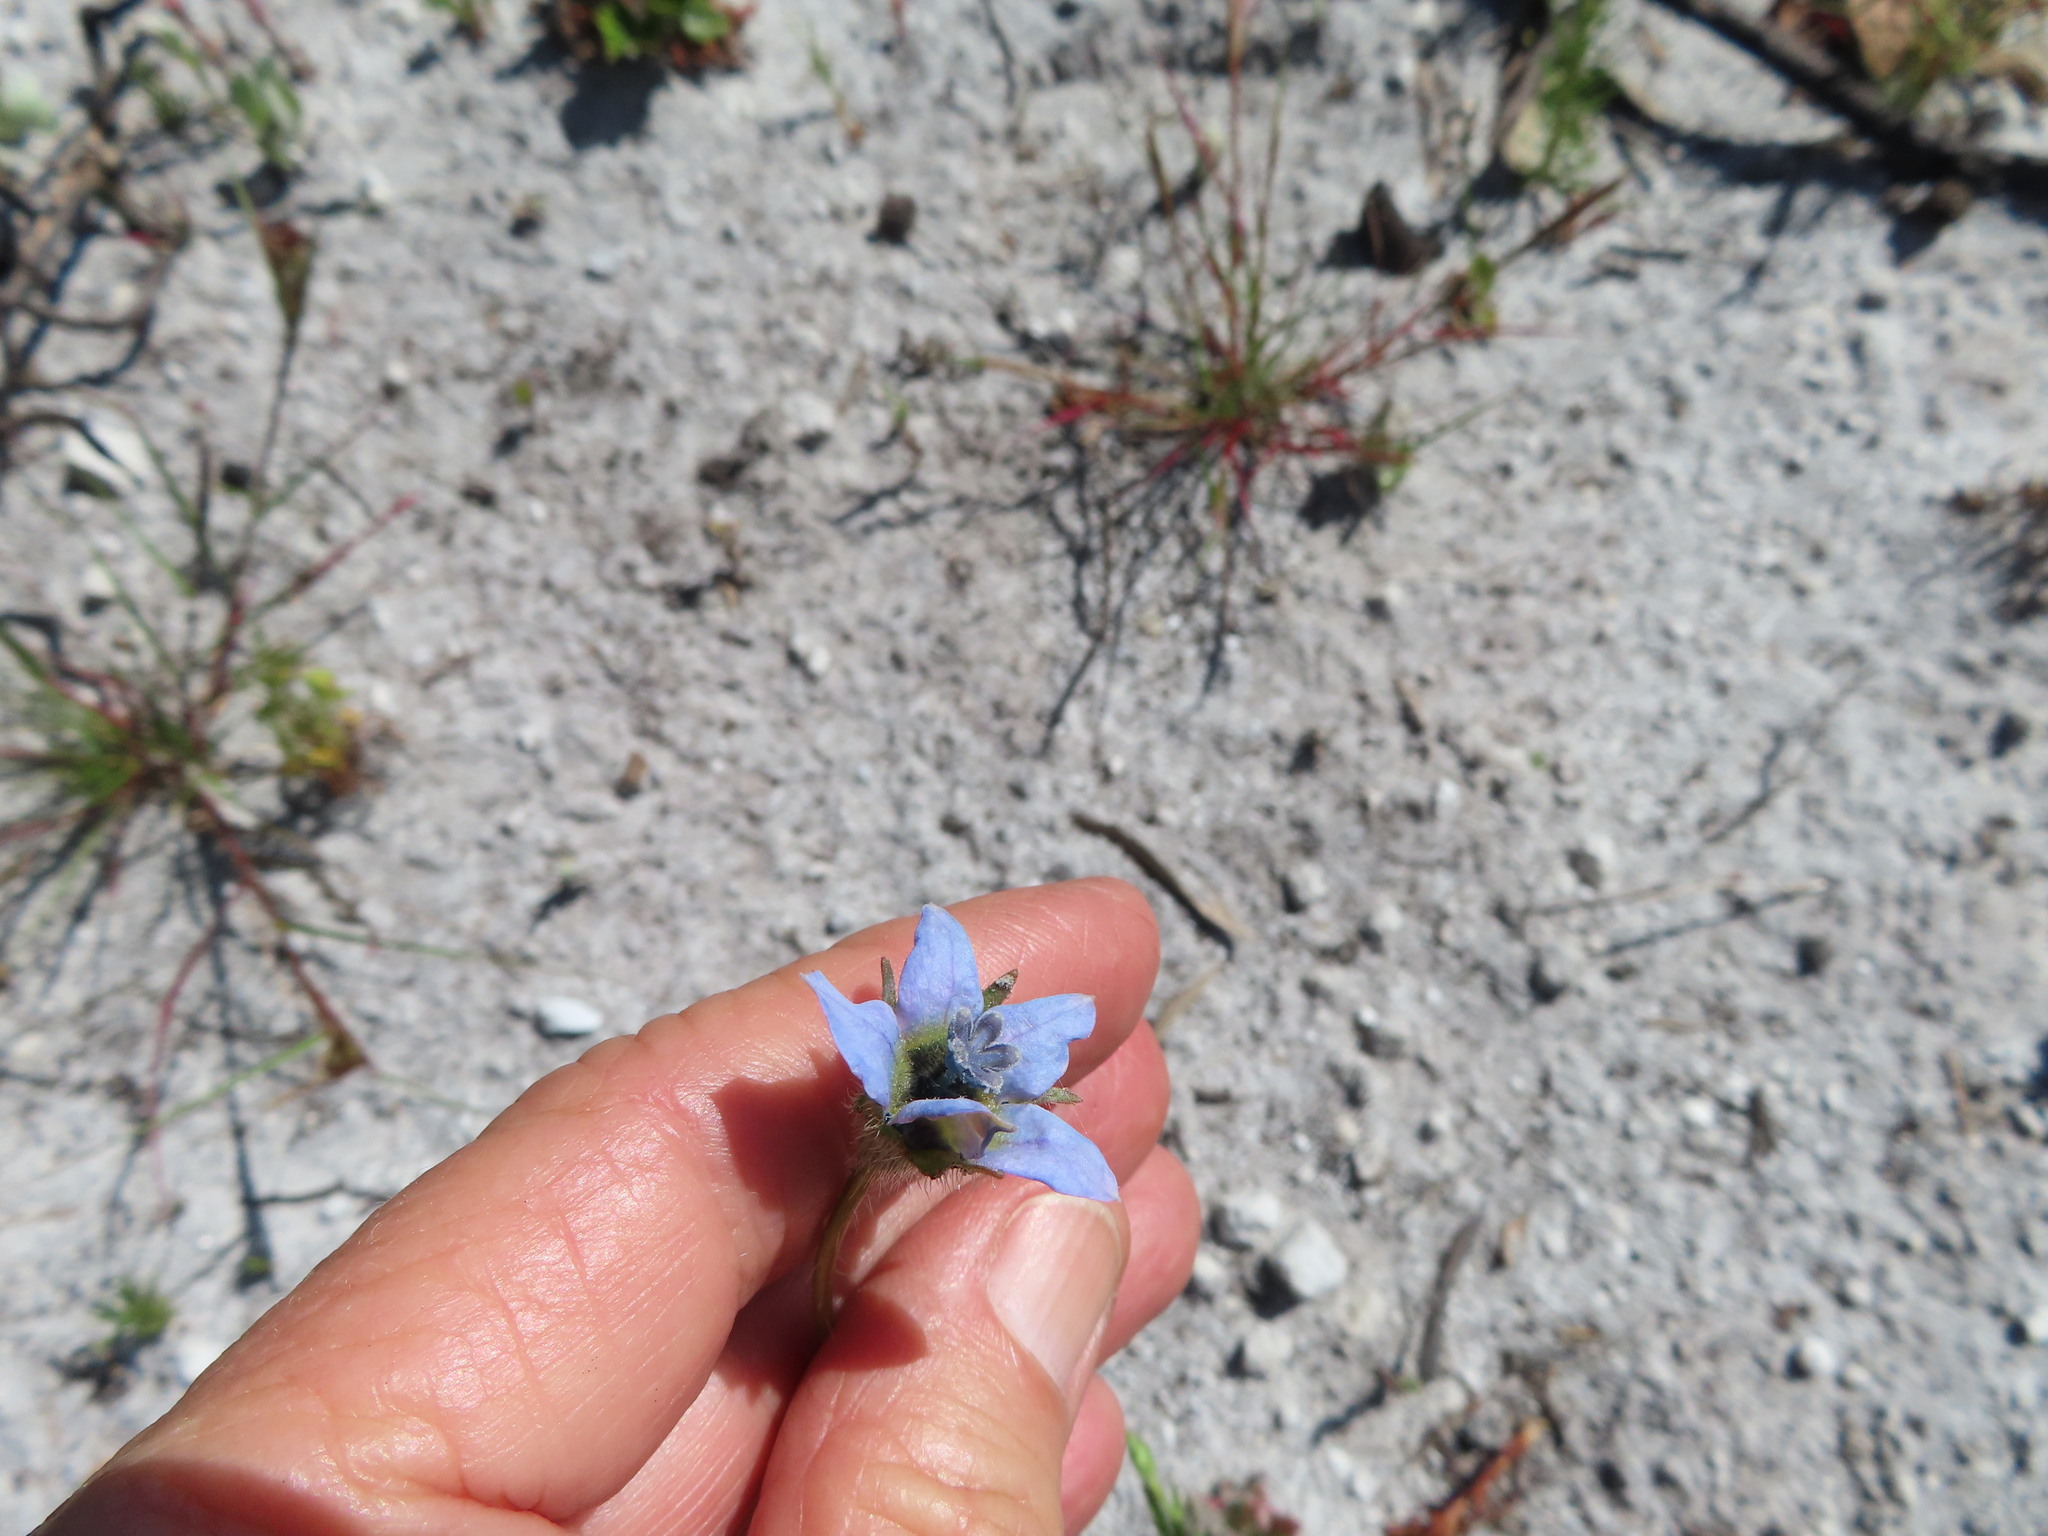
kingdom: Plantae
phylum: Tracheophyta
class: Magnoliopsida
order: Asterales
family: Campanulaceae
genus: Wahlenbergia
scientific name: Wahlenbergia capensis
